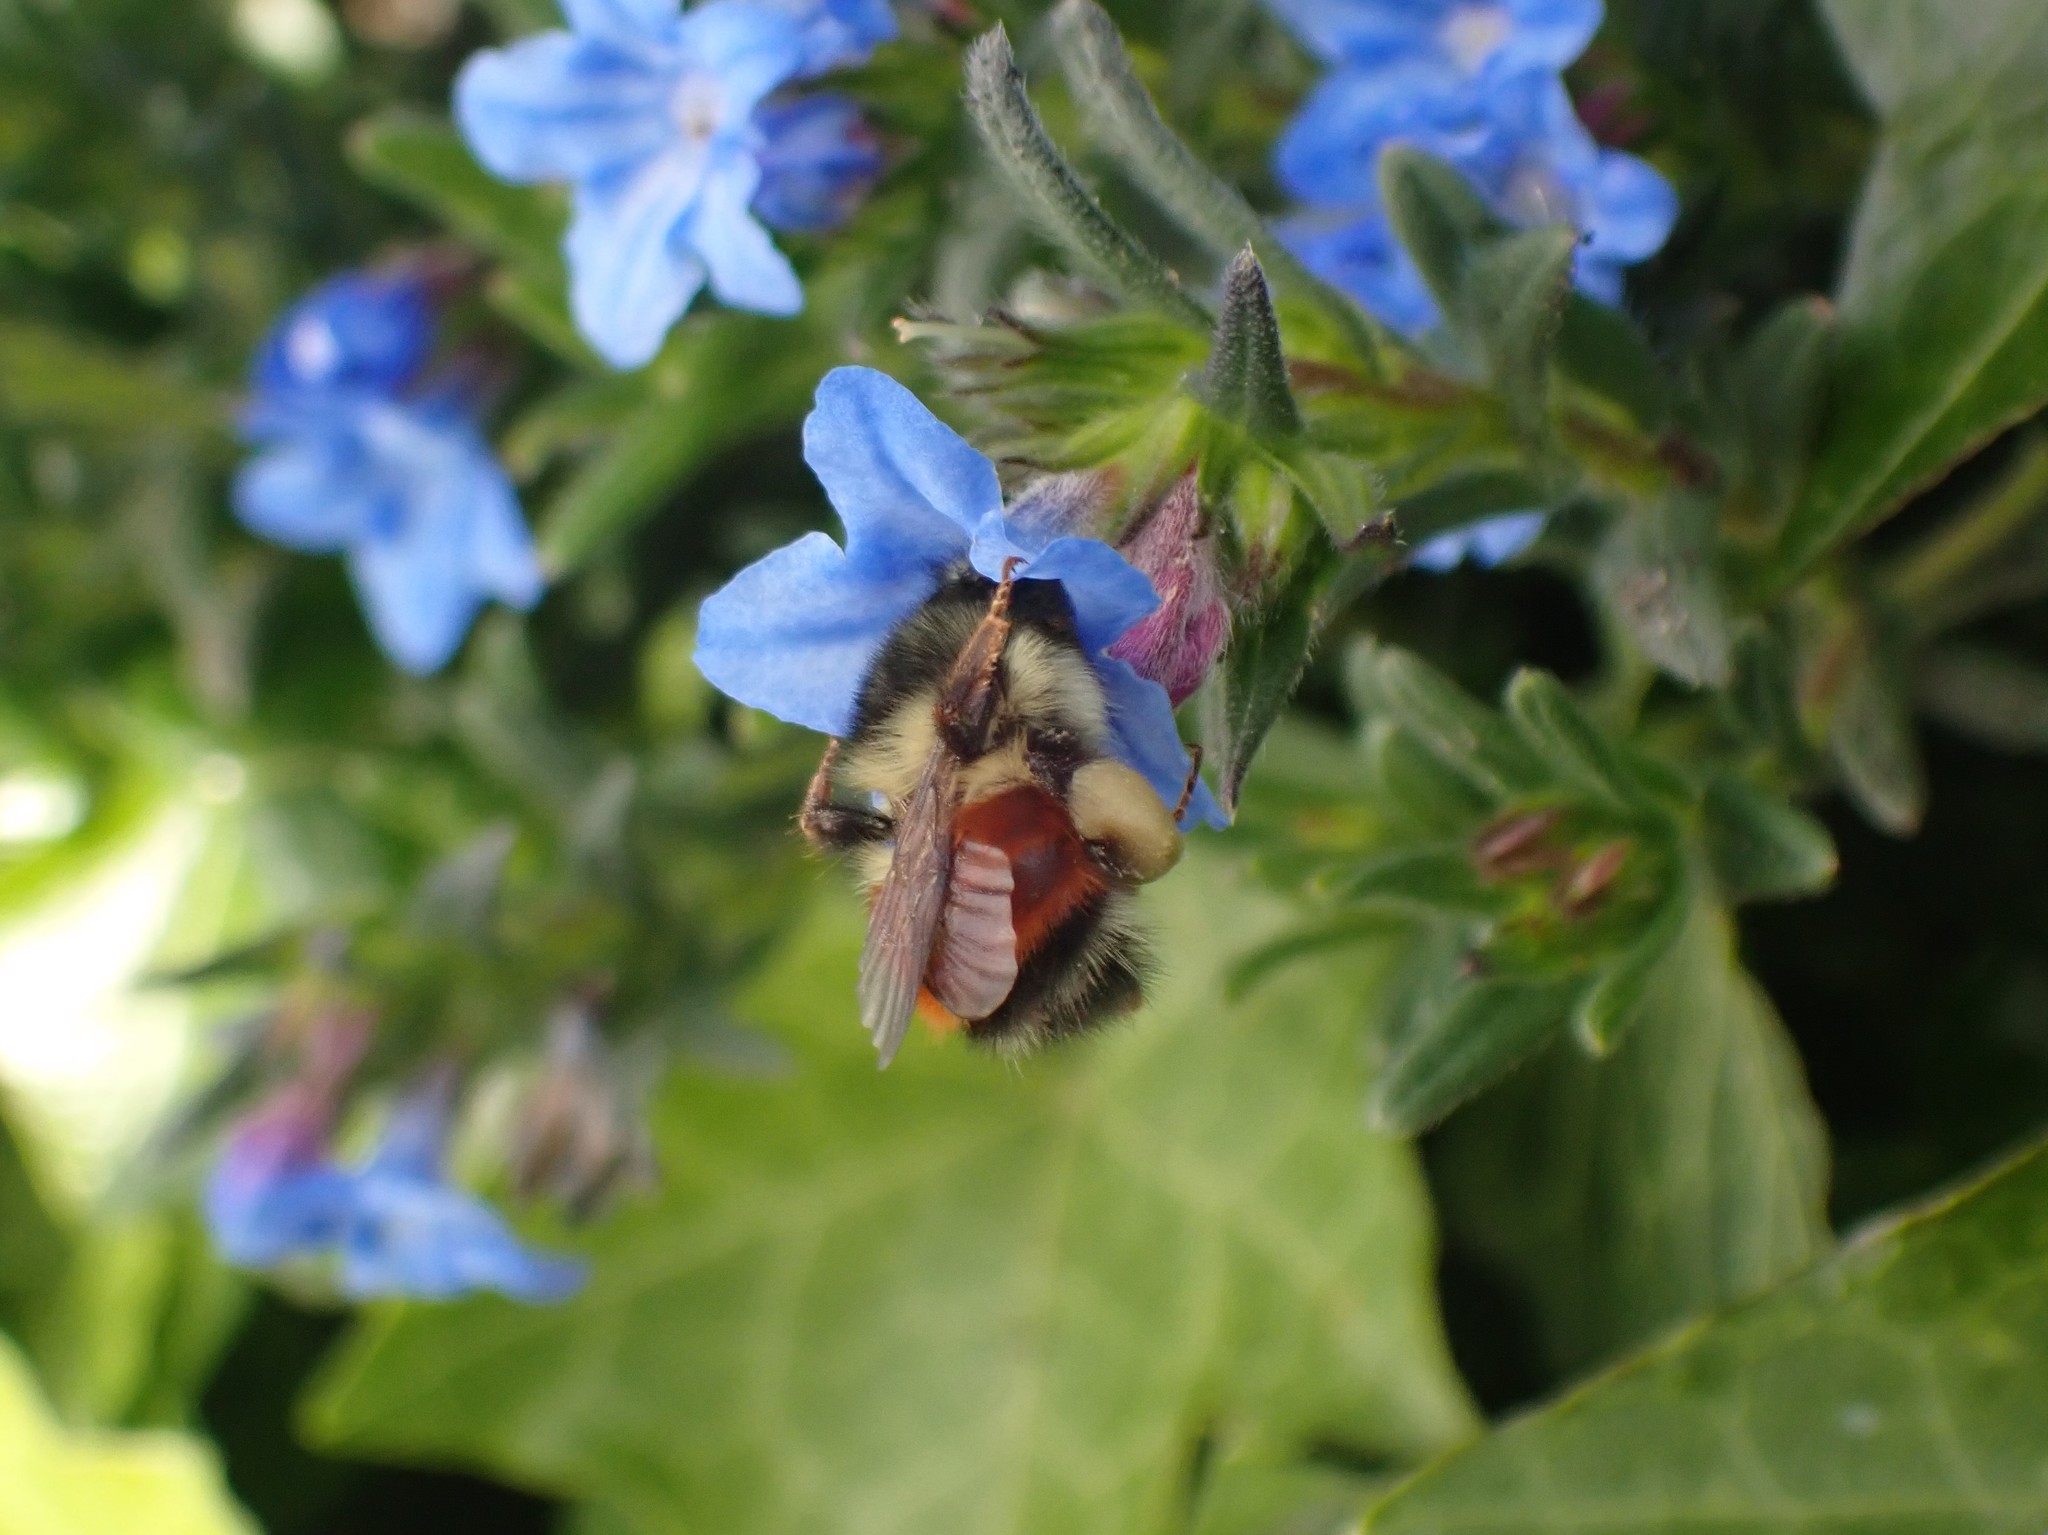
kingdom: Animalia
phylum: Arthropoda
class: Insecta
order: Hymenoptera
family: Apidae
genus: Bombus
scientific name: Bombus melanopygus
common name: Black tail bumble bee
